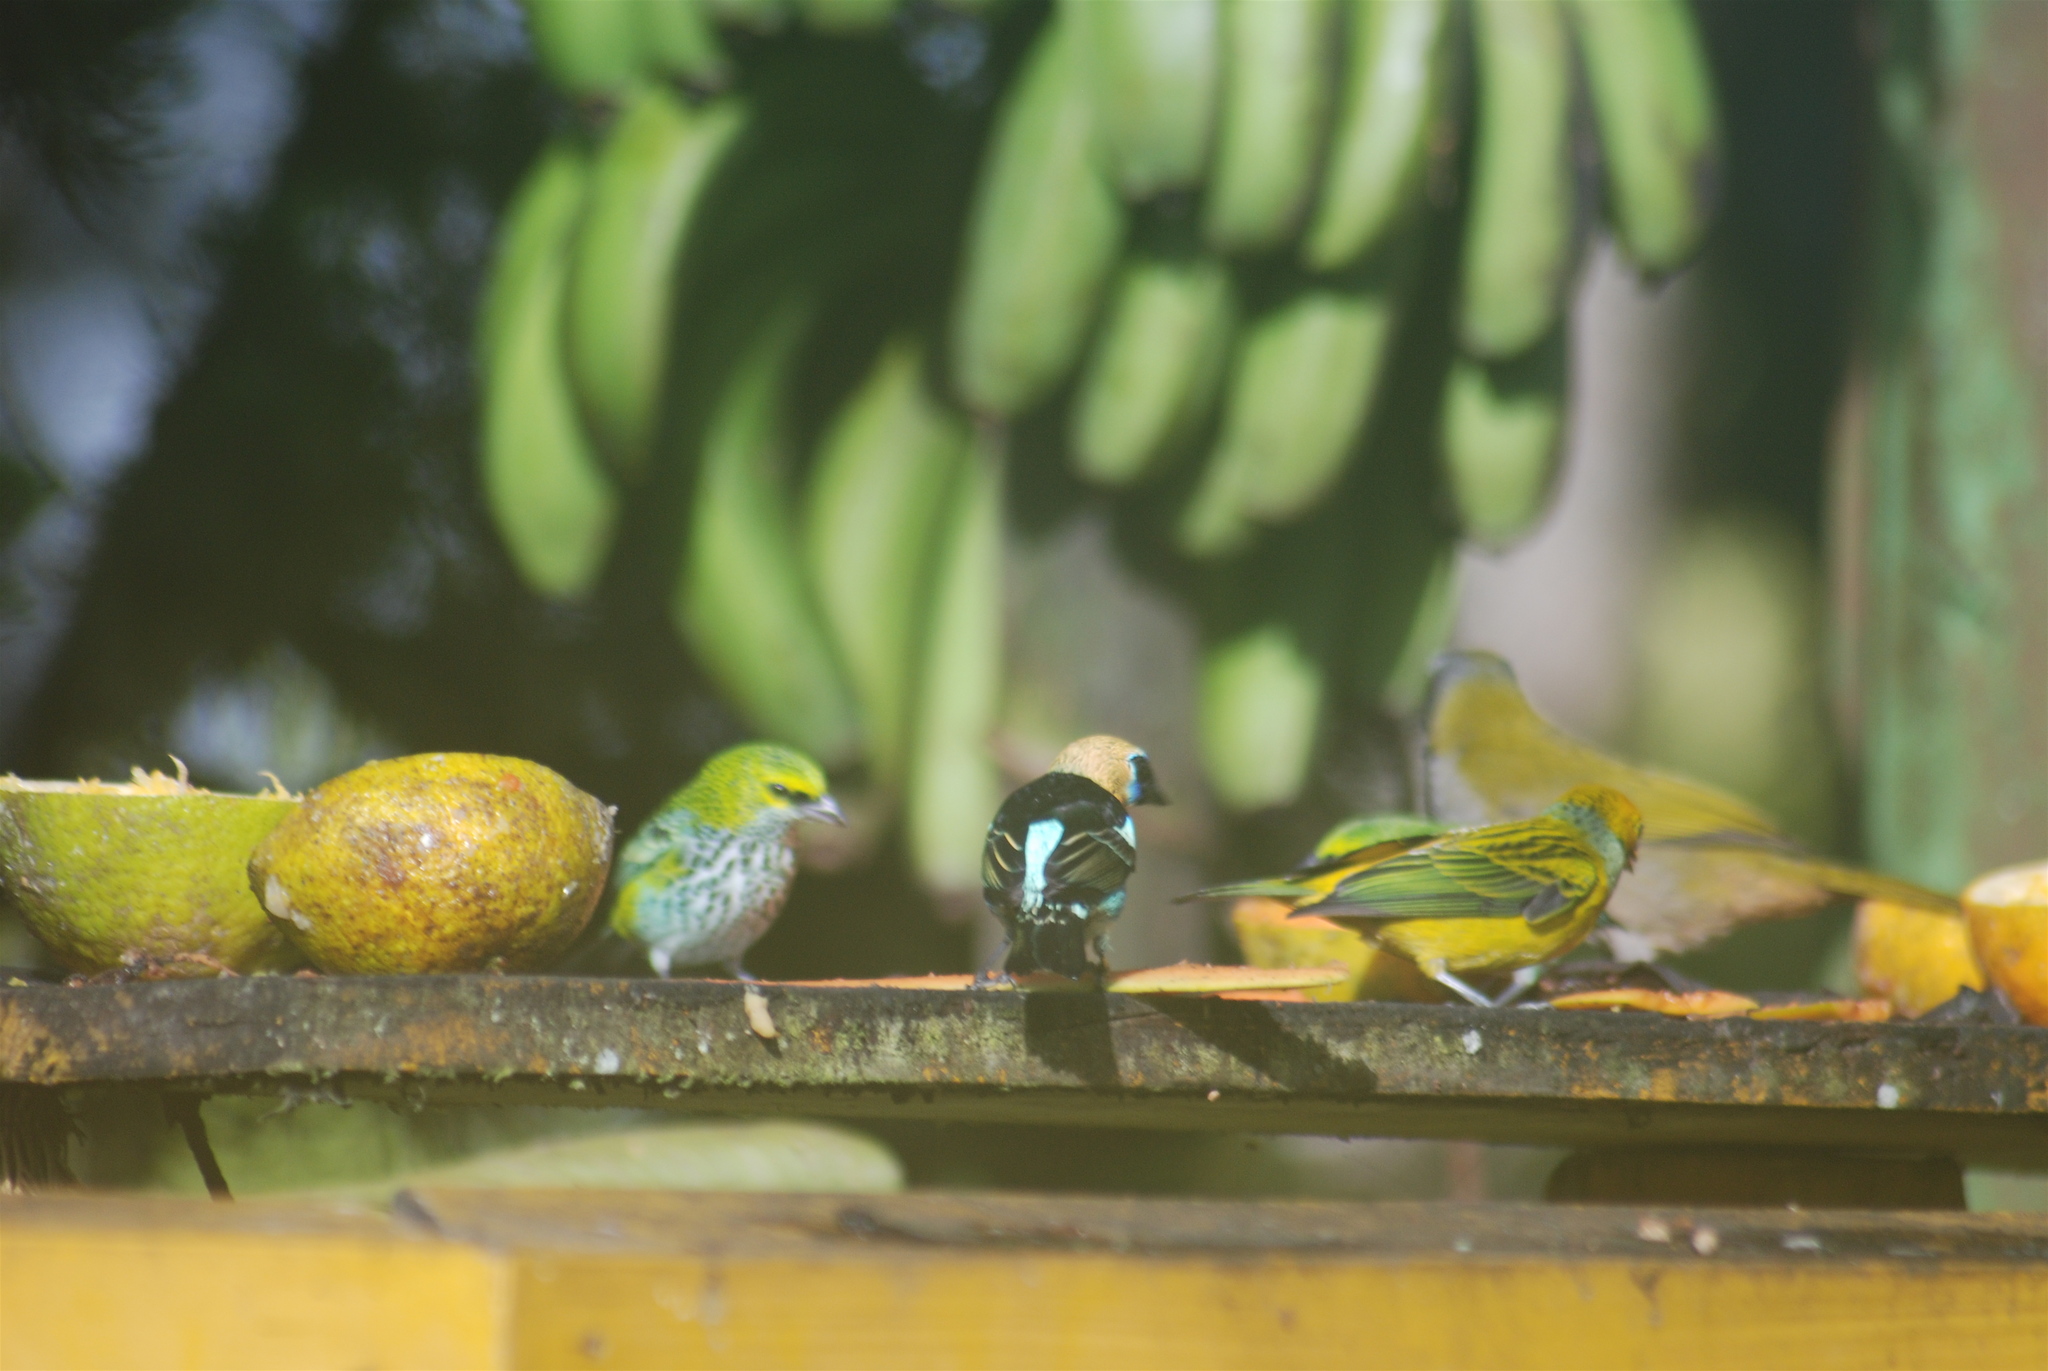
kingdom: Animalia
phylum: Chordata
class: Aves
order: Passeriformes
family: Thraupidae
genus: Stilpnia
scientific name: Stilpnia larvata
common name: Golden-hooded tanager
